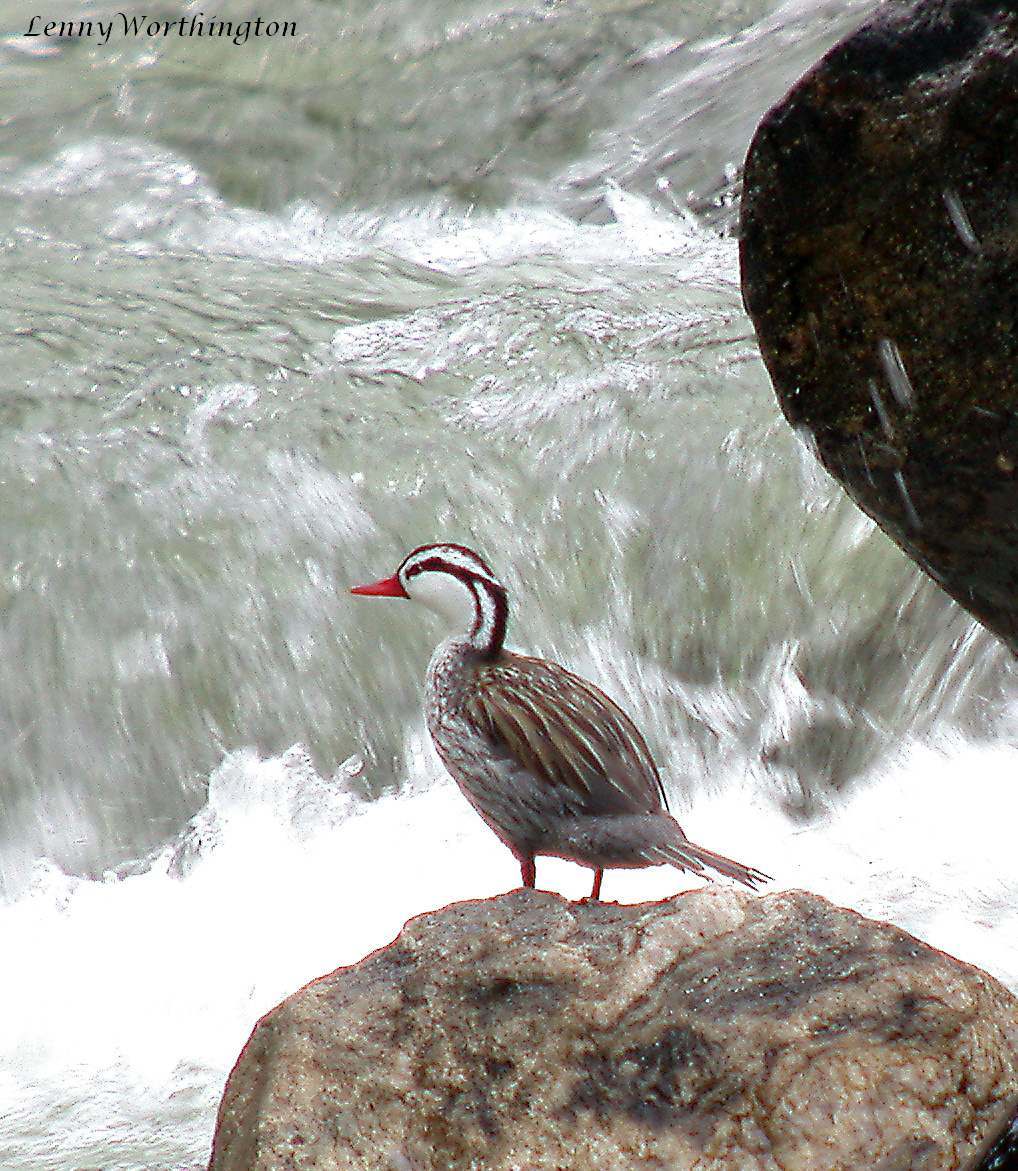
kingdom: Animalia
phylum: Chordata
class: Aves
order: Anseriformes
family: Anatidae
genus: Merganetta
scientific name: Merganetta armata
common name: Torrent duck
